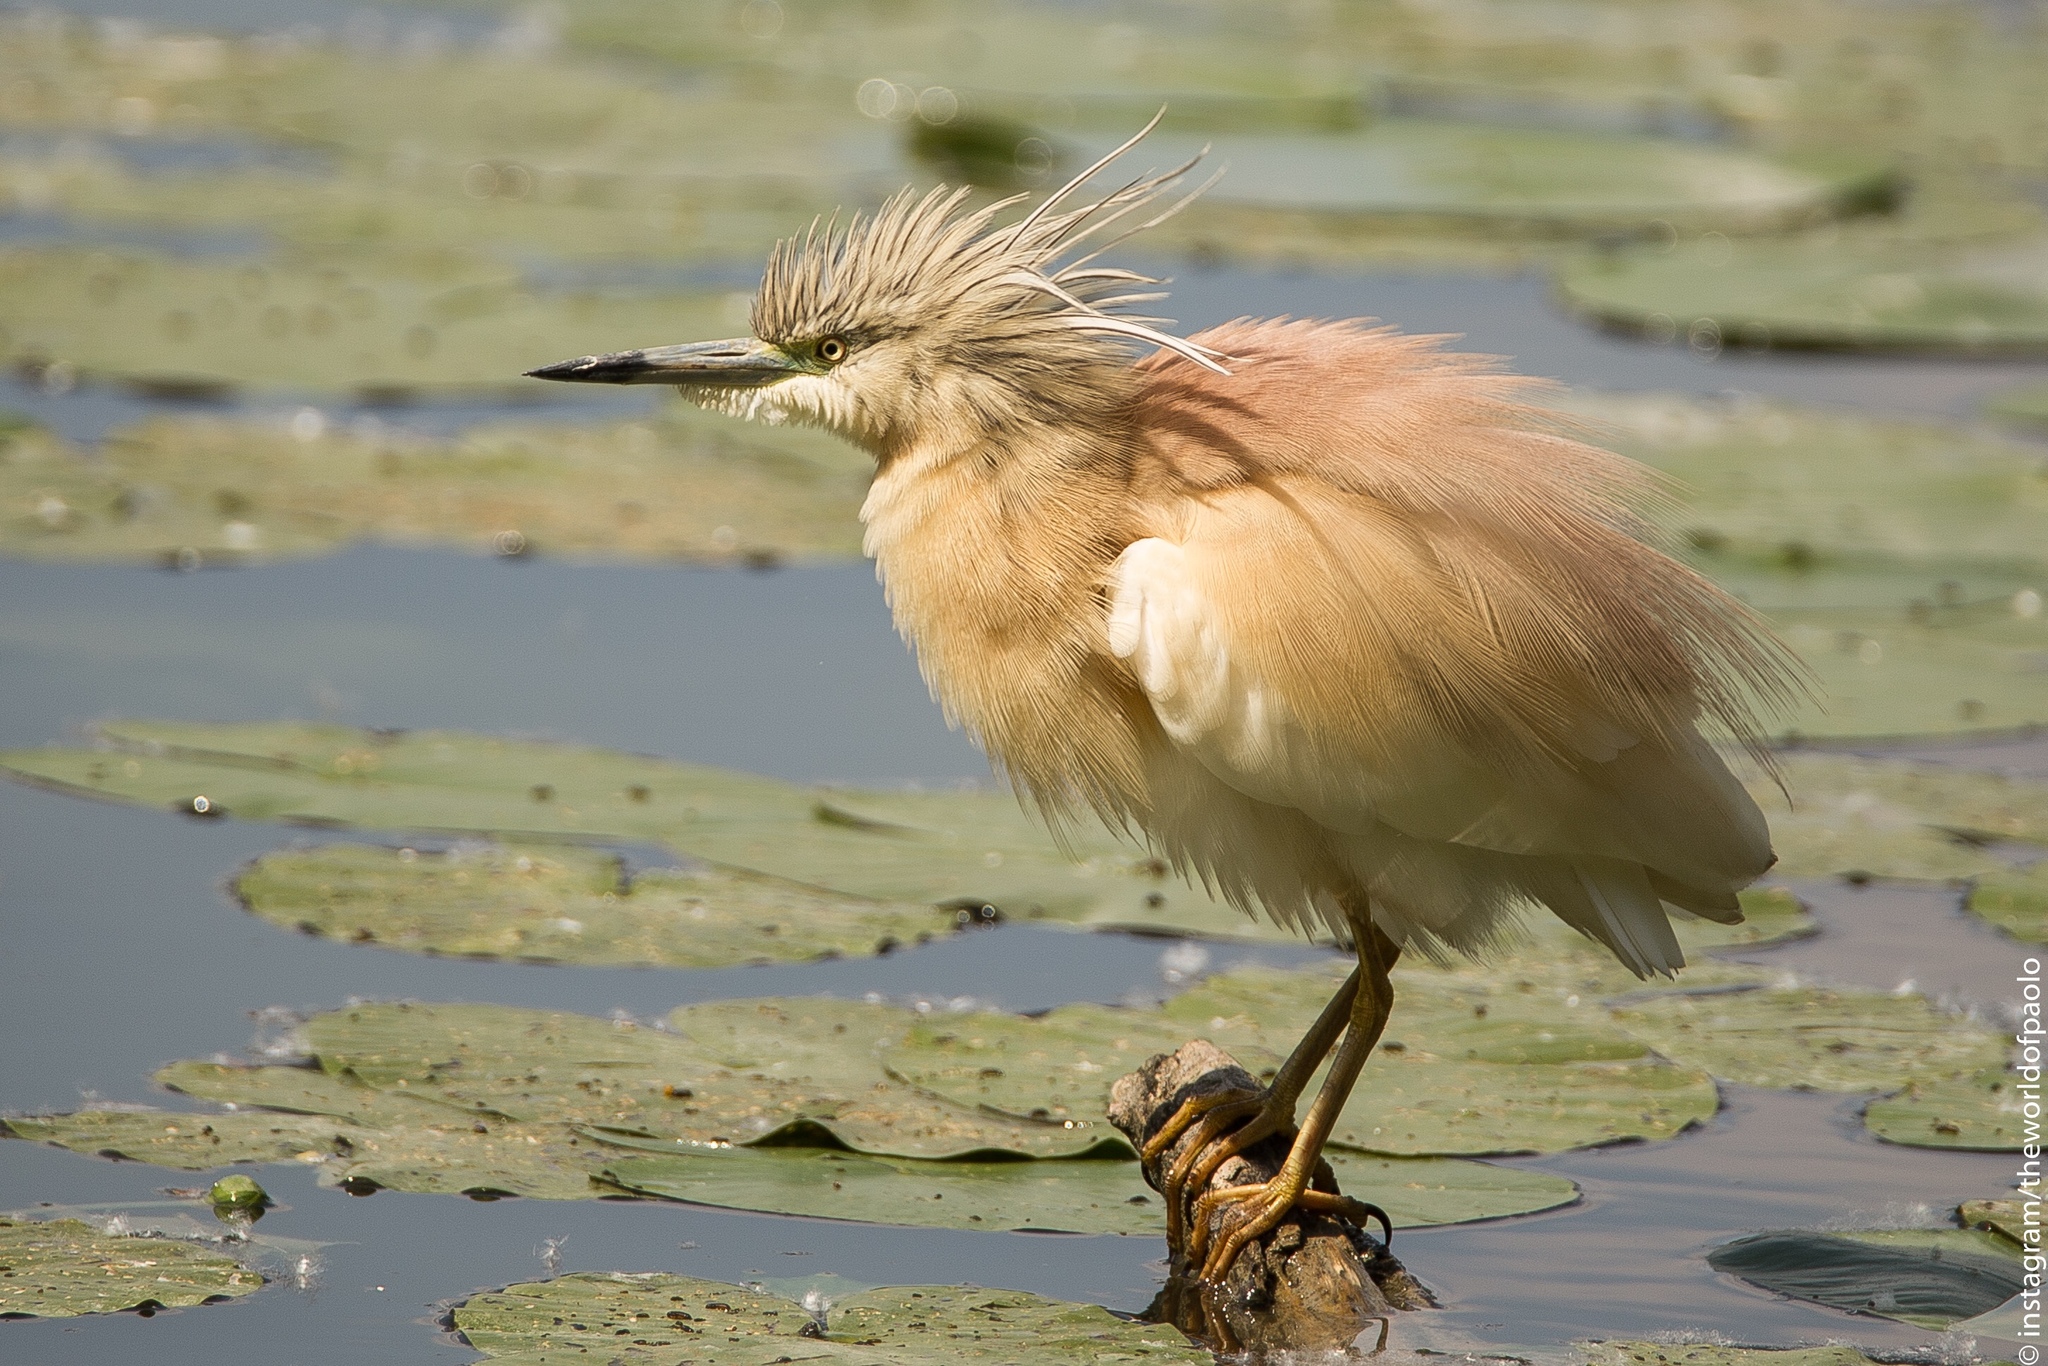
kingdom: Animalia
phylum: Chordata
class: Aves
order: Pelecaniformes
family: Ardeidae
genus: Ardeola
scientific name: Ardeola ralloides
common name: Squacco heron
